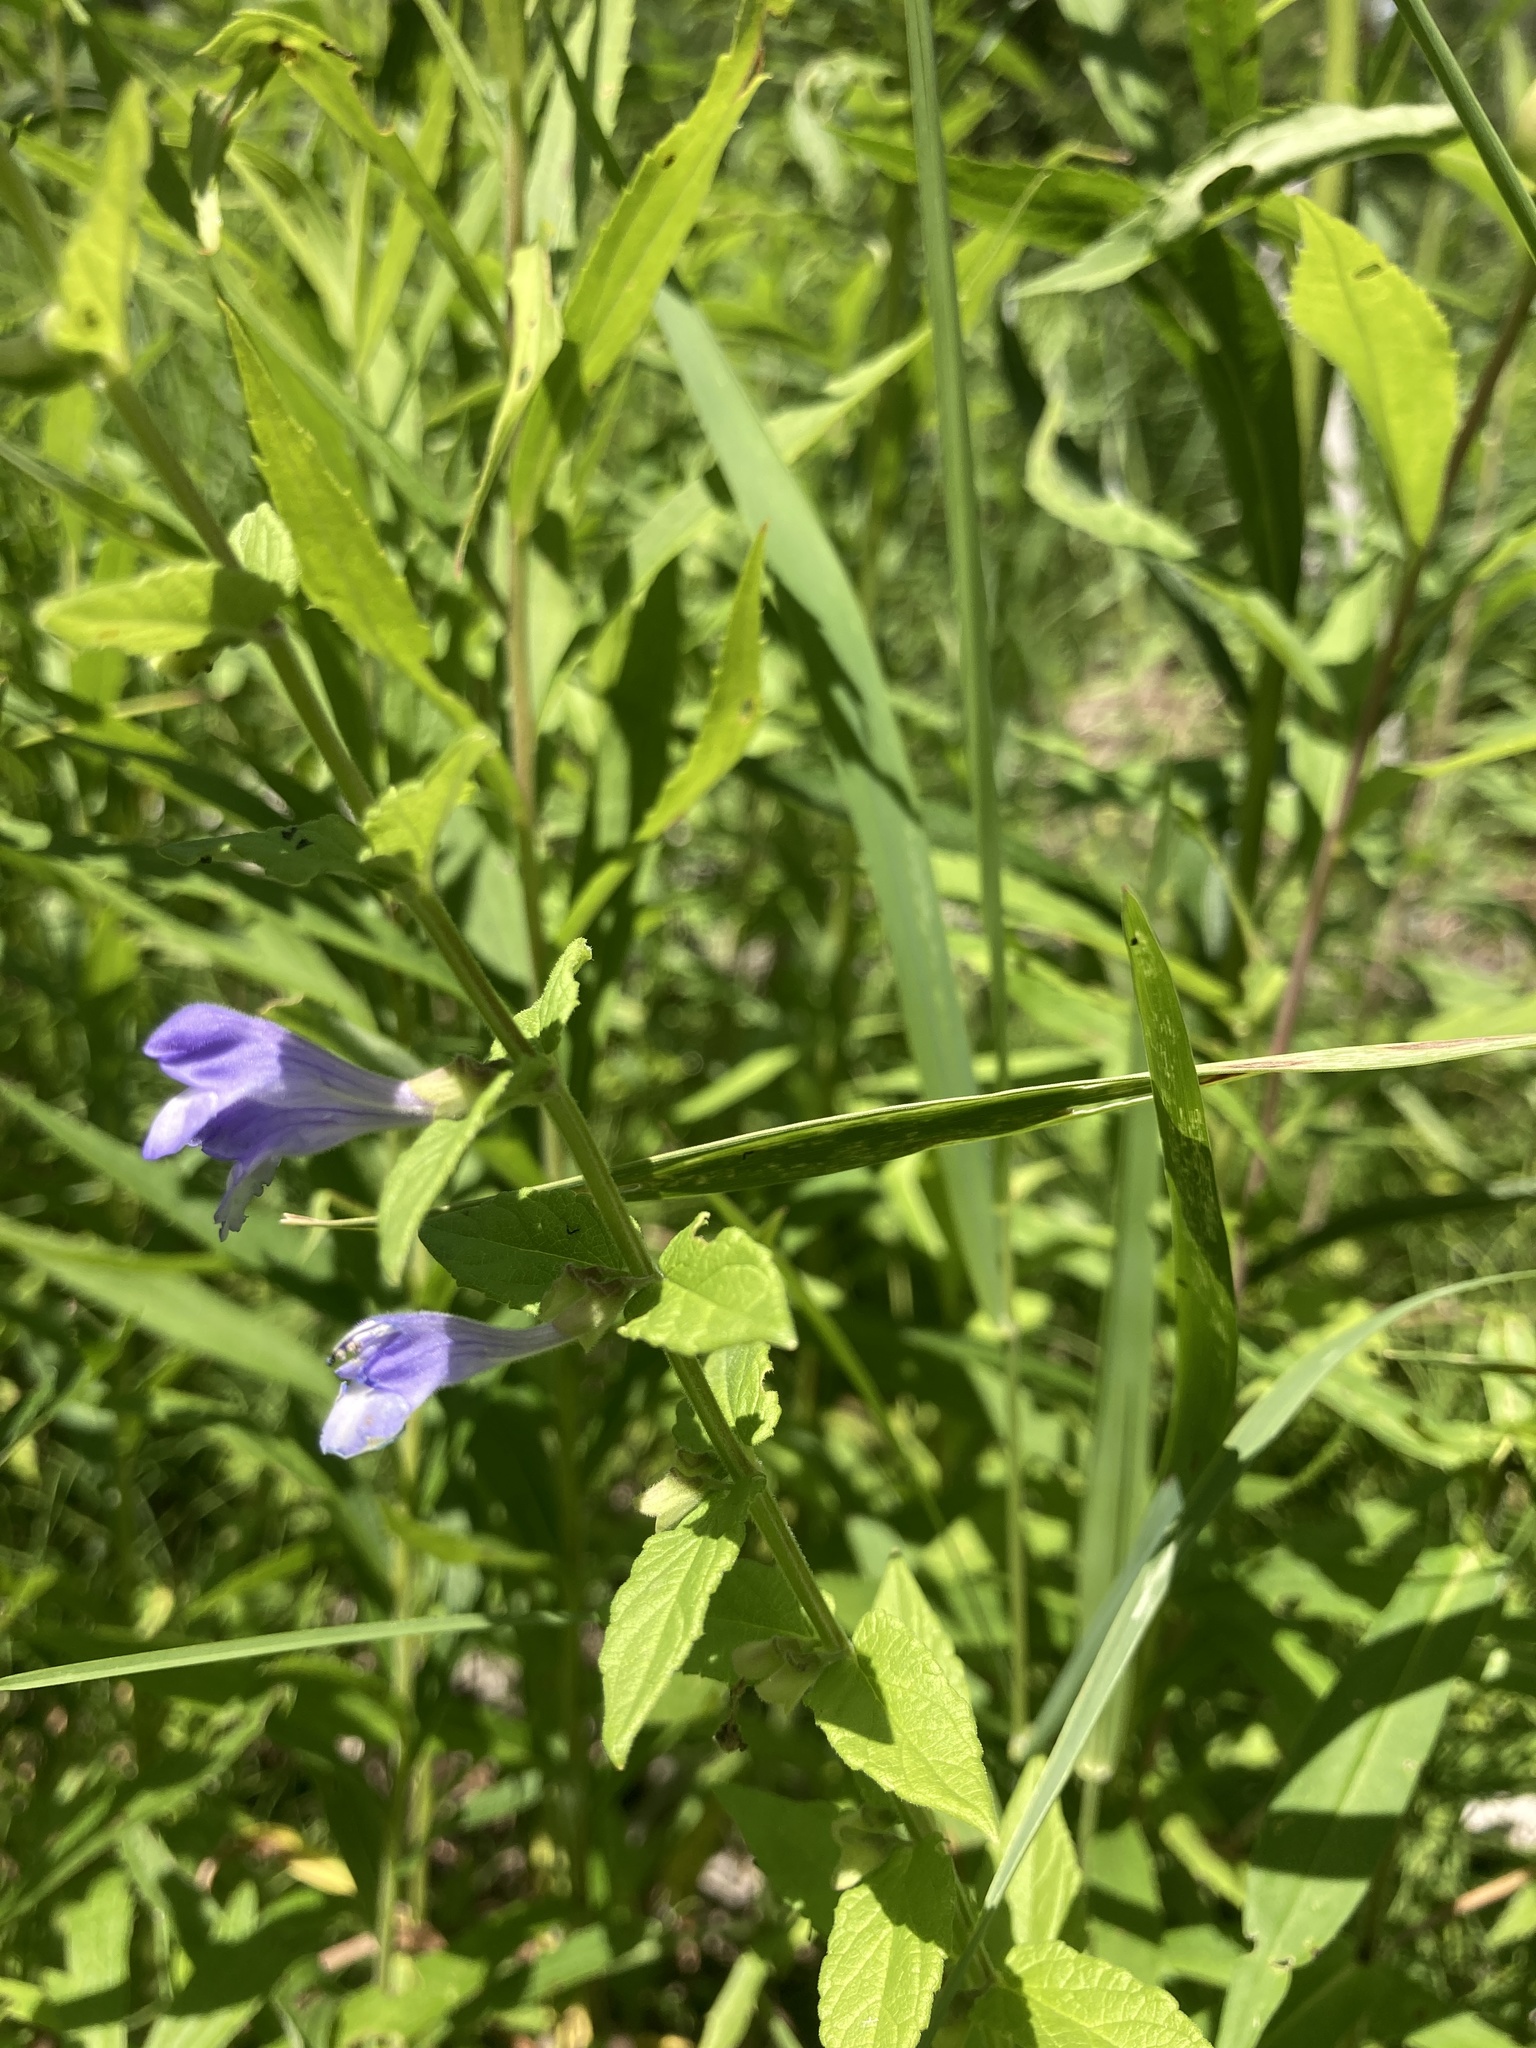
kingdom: Plantae
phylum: Tracheophyta
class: Magnoliopsida
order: Lamiales
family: Lamiaceae
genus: Scutellaria
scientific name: Scutellaria galericulata
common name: Skullcap
